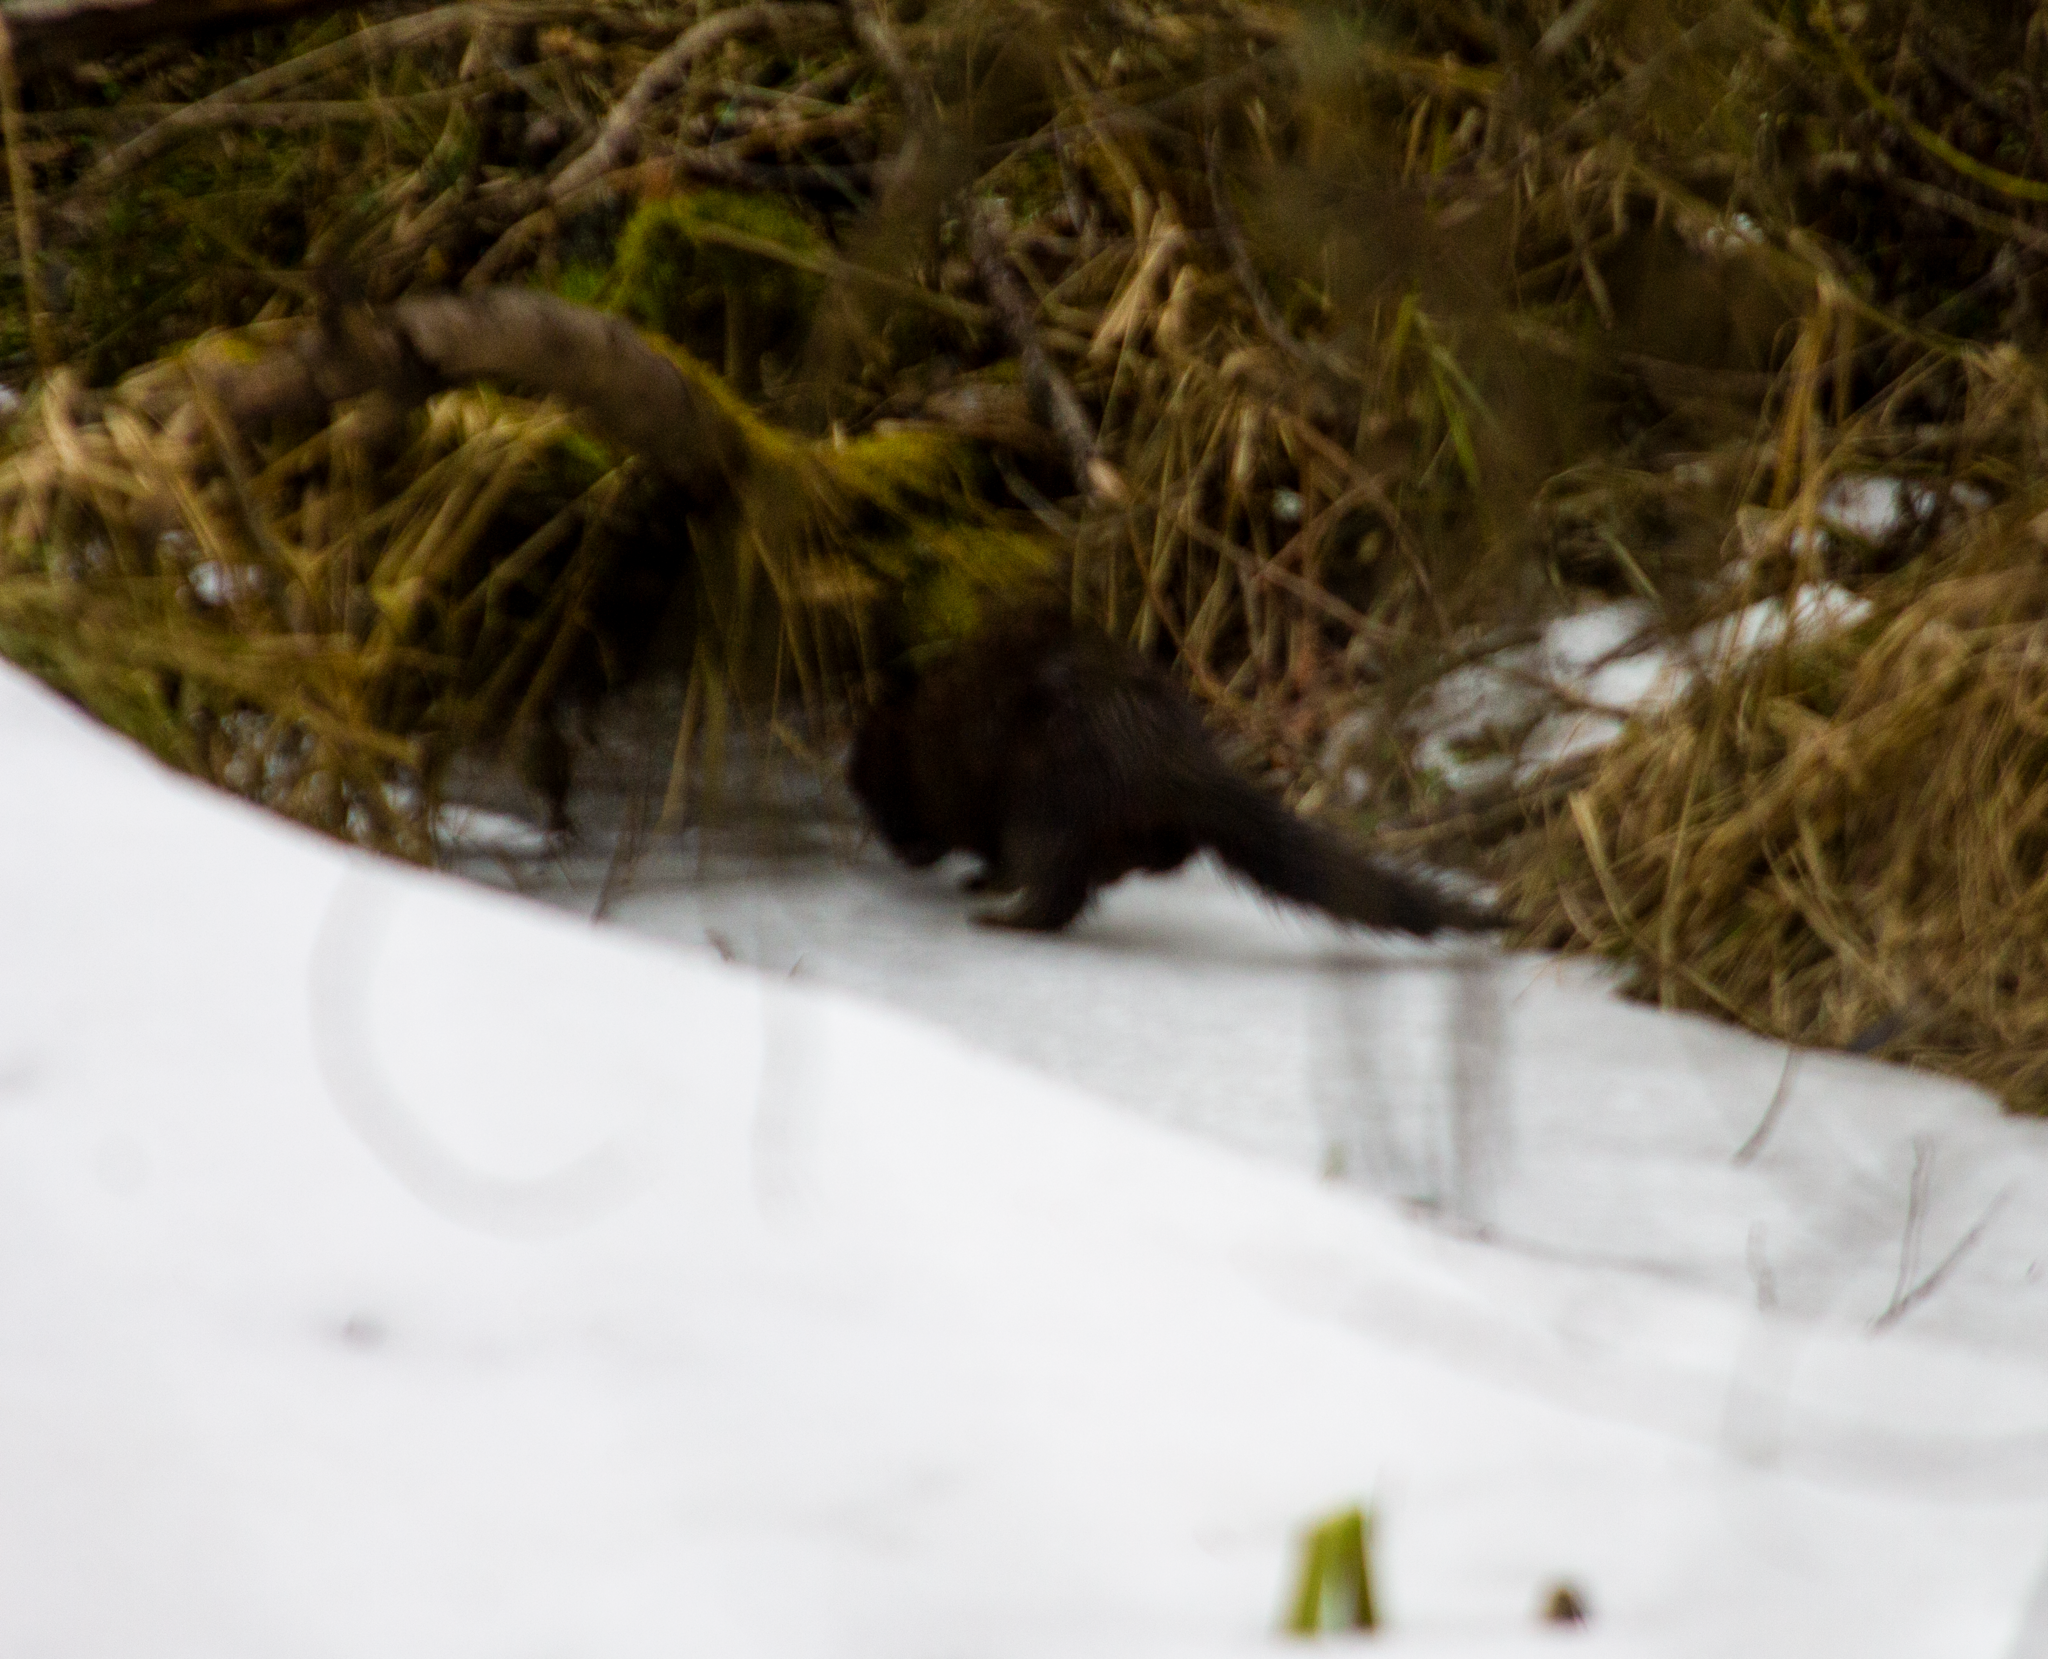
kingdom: Animalia
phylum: Chordata
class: Mammalia
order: Carnivora
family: Mustelidae
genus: Mustela
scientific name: Mustela
